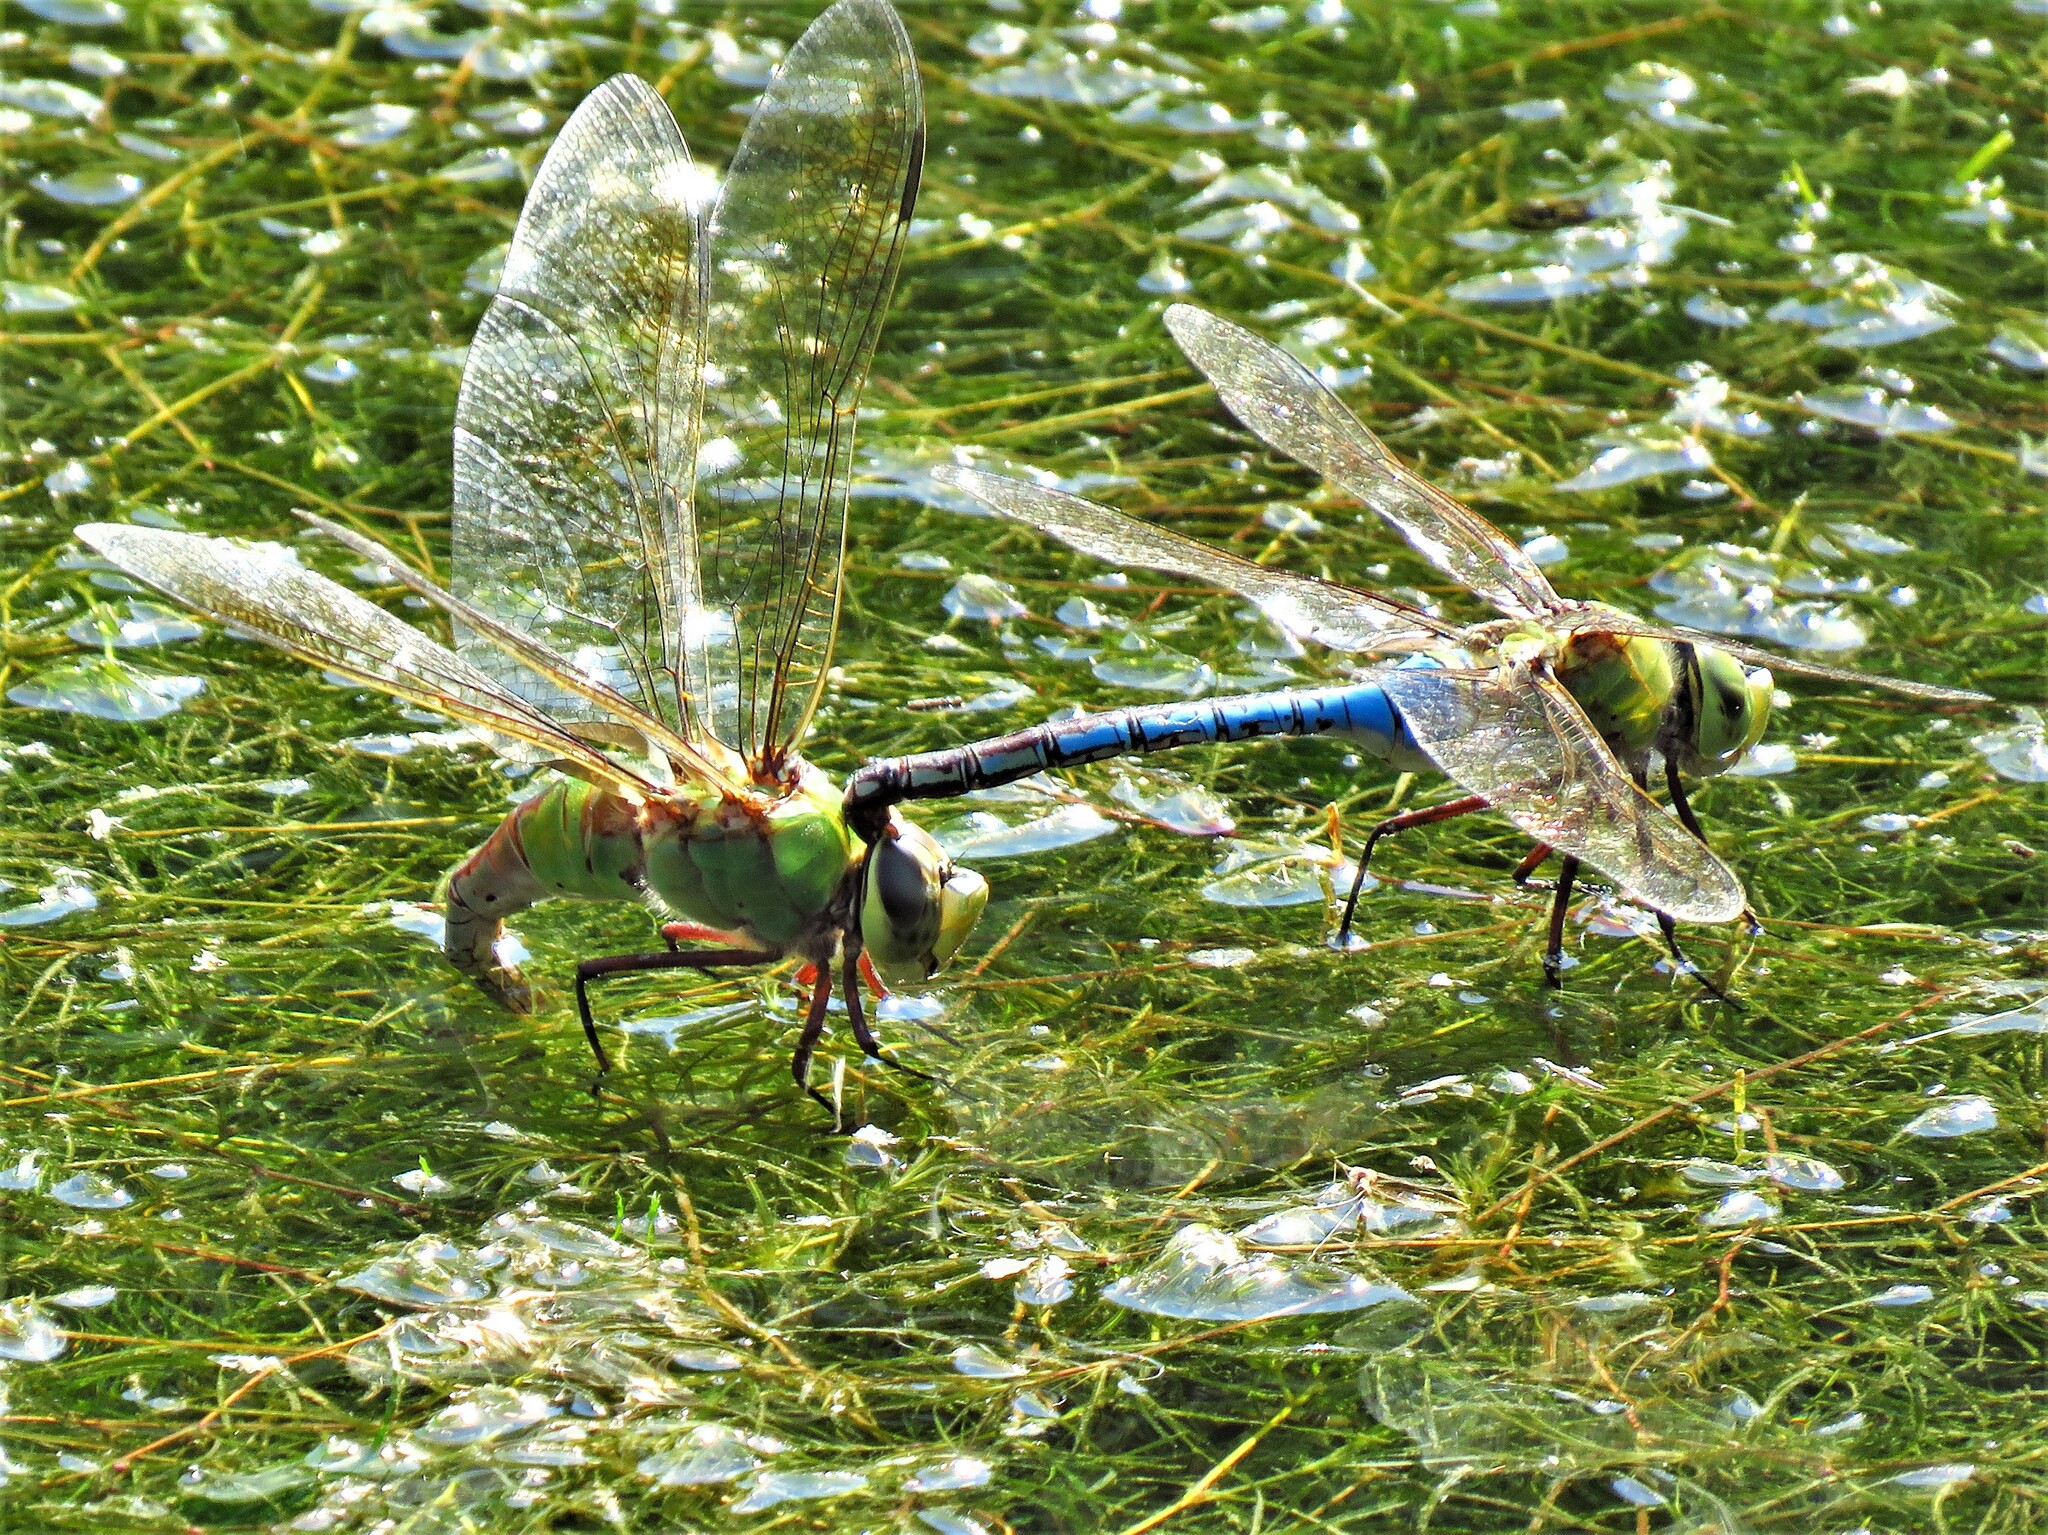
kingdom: Animalia
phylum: Arthropoda
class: Insecta
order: Odonata
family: Aeshnidae
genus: Anax
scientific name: Anax junius
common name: Common green darner
